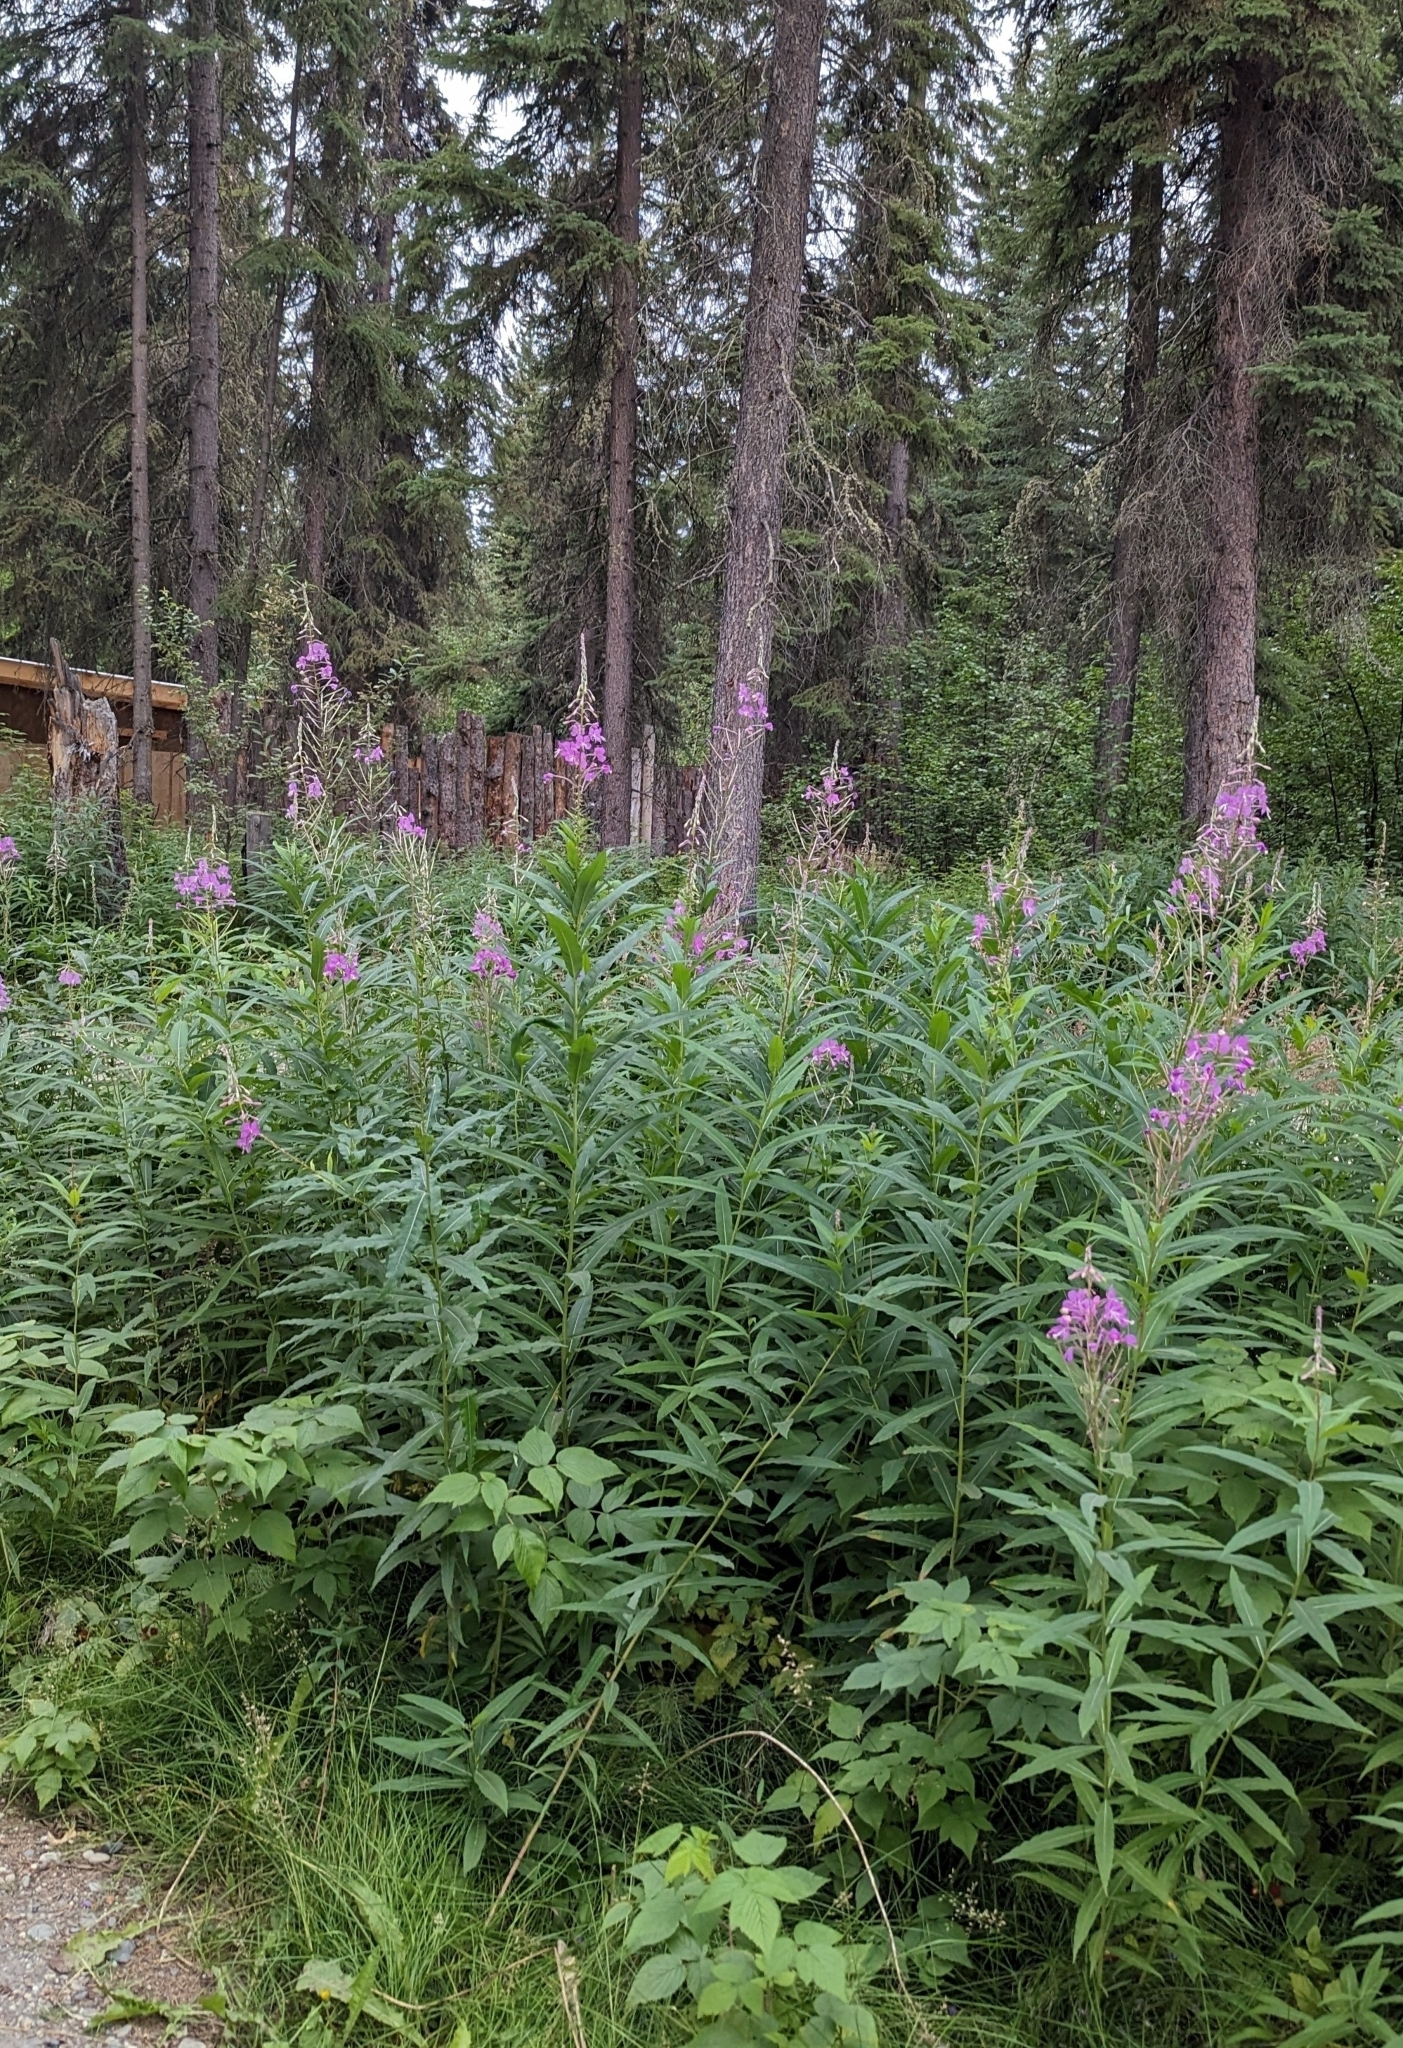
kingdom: Plantae
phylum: Tracheophyta
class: Magnoliopsida
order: Myrtales
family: Onagraceae
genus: Chamaenerion
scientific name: Chamaenerion angustifolium
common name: Fireweed
